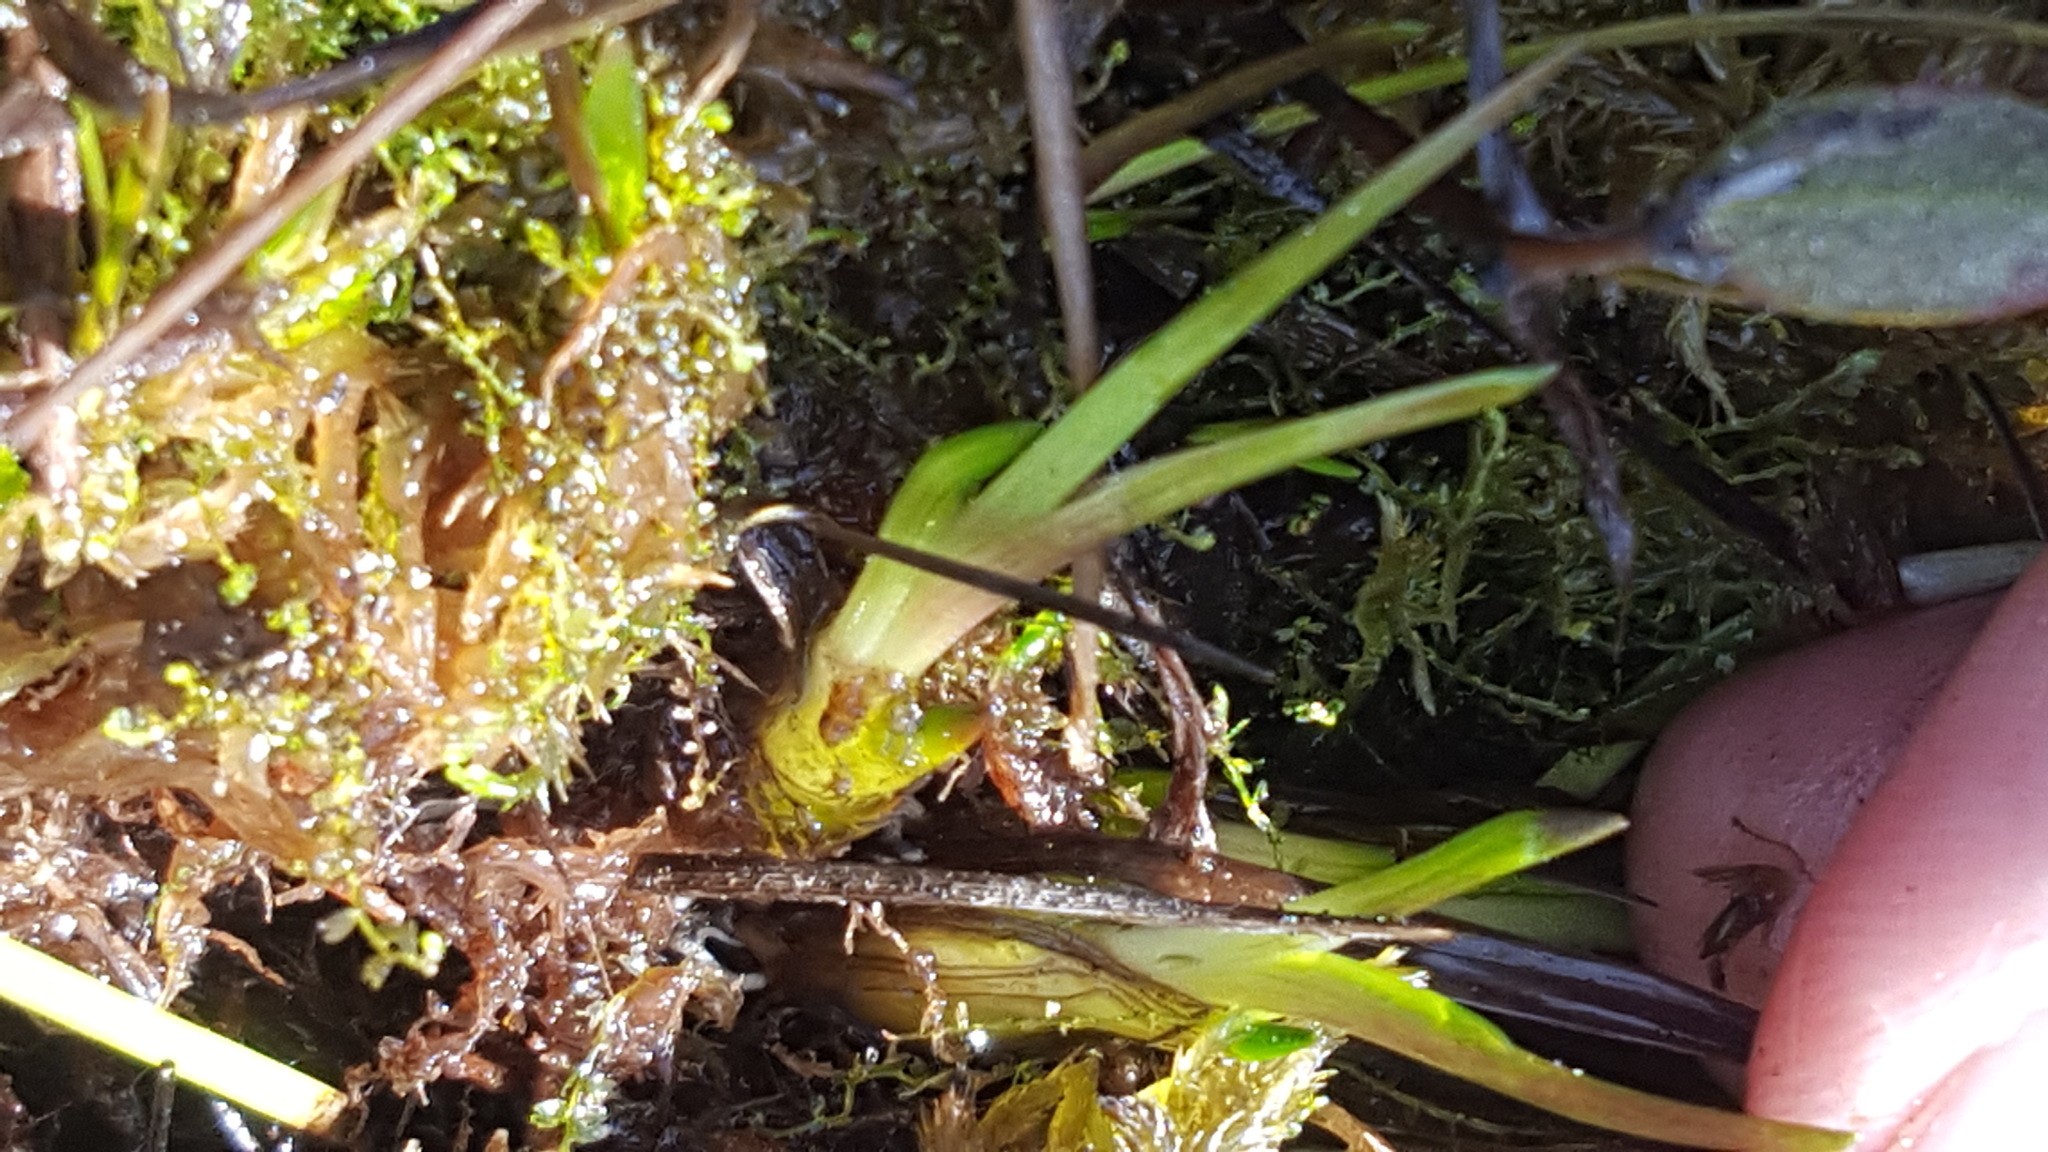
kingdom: Plantae
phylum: Tracheophyta
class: Liliopsida
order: Poales
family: Xyridaceae
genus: Xyris
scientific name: Xyris montana
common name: Northern yellow-eyed-grass
